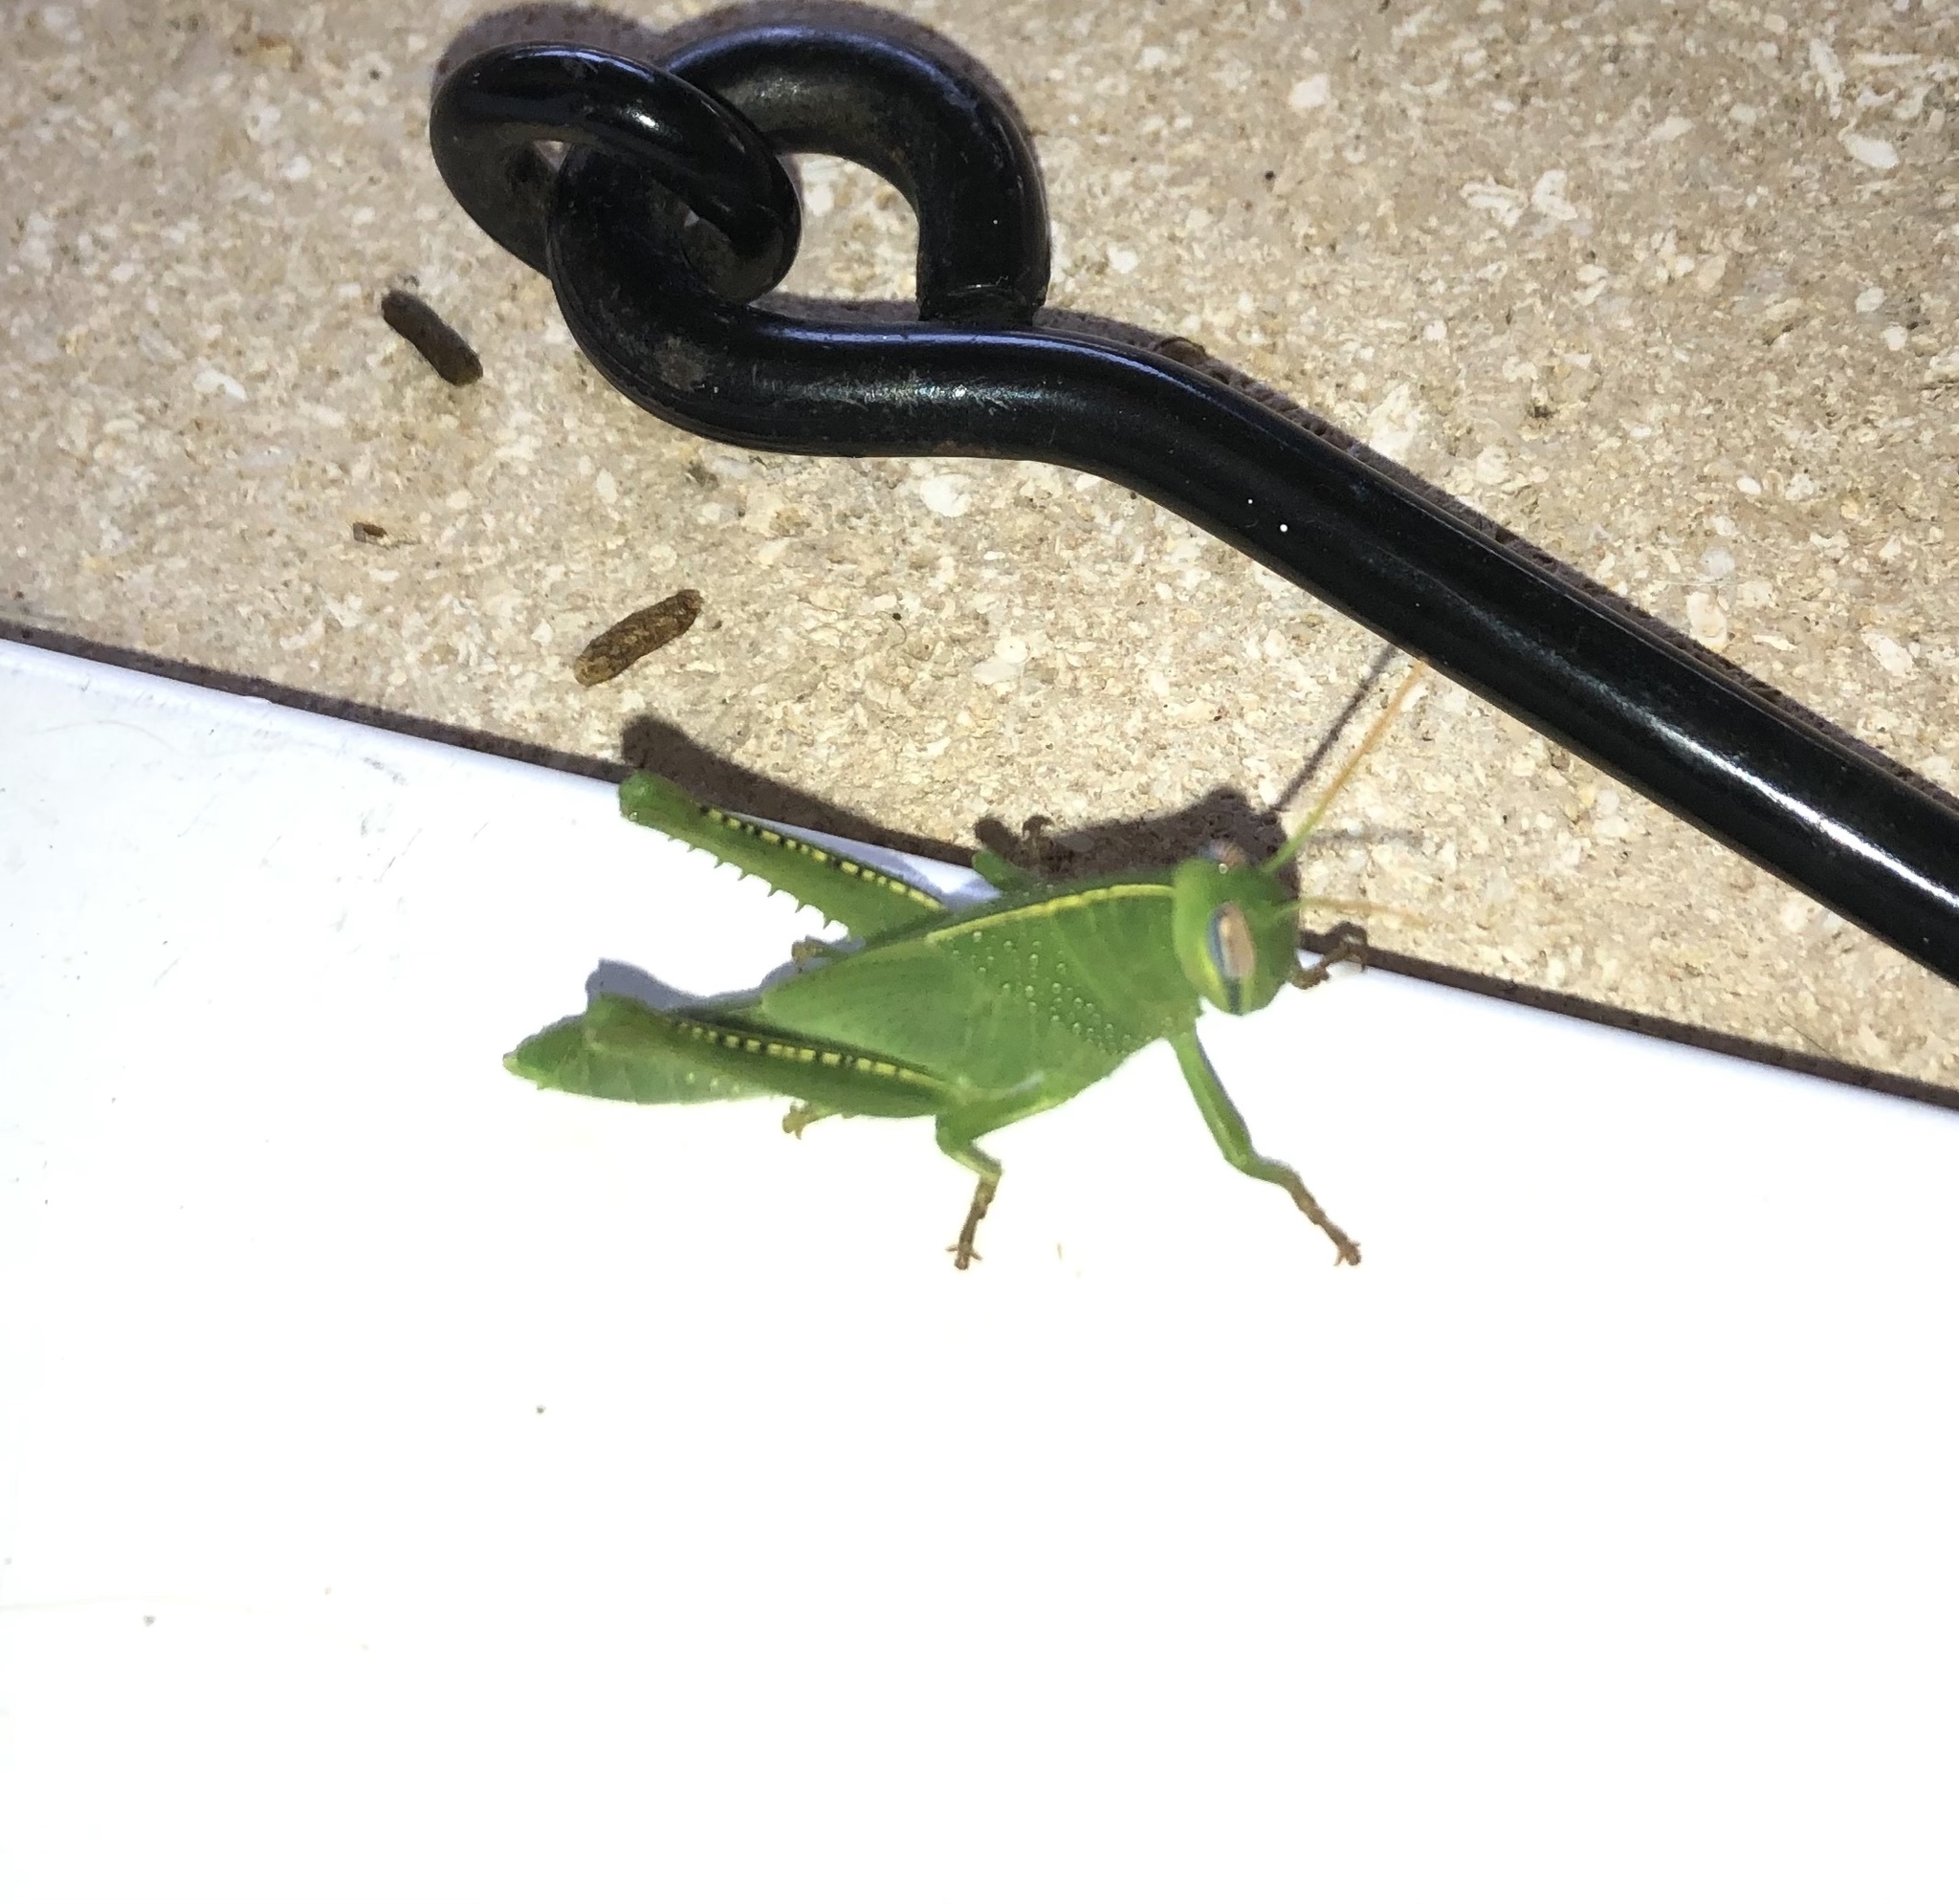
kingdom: Animalia
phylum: Arthropoda
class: Insecta
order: Orthoptera
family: Acrididae
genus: Anacridium
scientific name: Anacridium aegyptium
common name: Egyptian grasshopper
